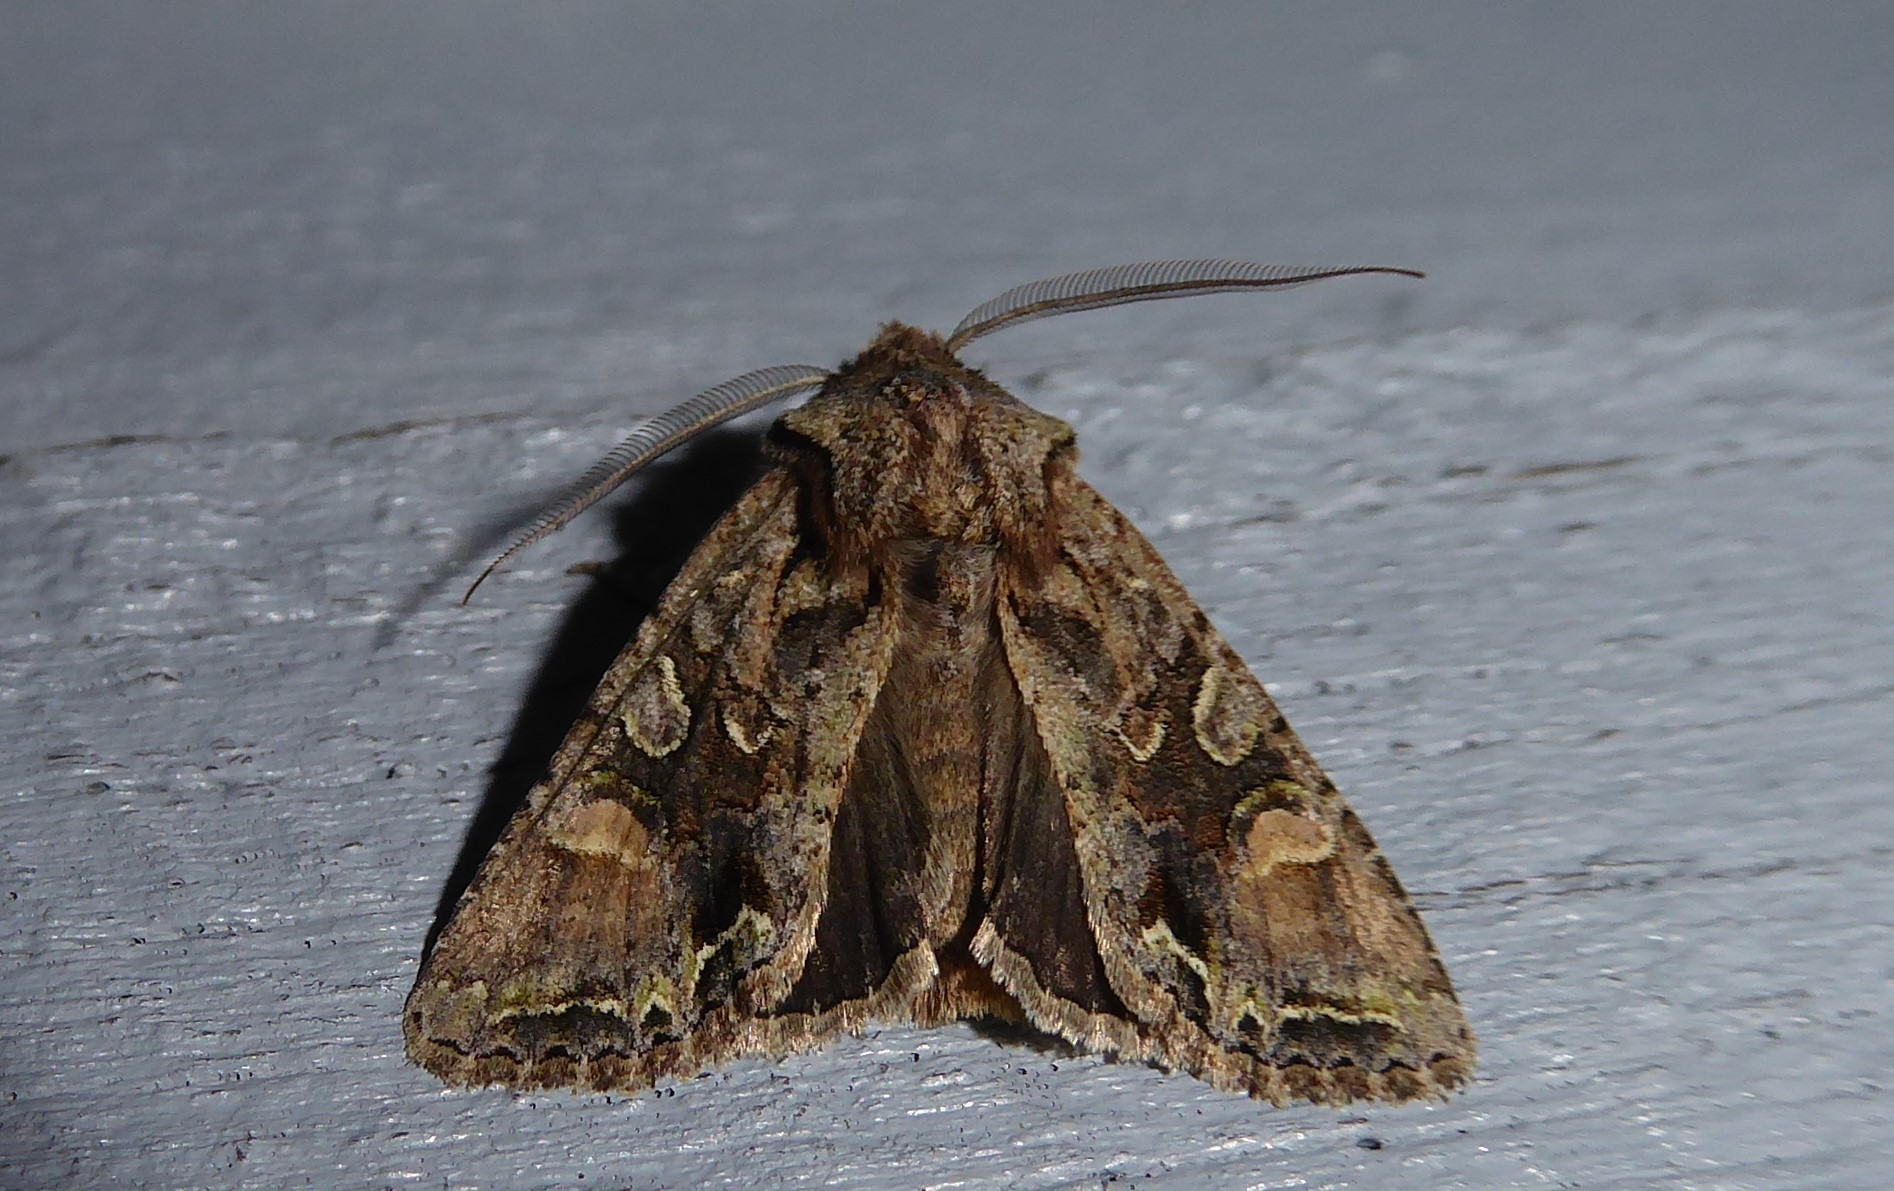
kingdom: Animalia
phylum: Arthropoda
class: Insecta
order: Lepidoptera
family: Noctuidae
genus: Ichneutica
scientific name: Ichneutica skelloni
